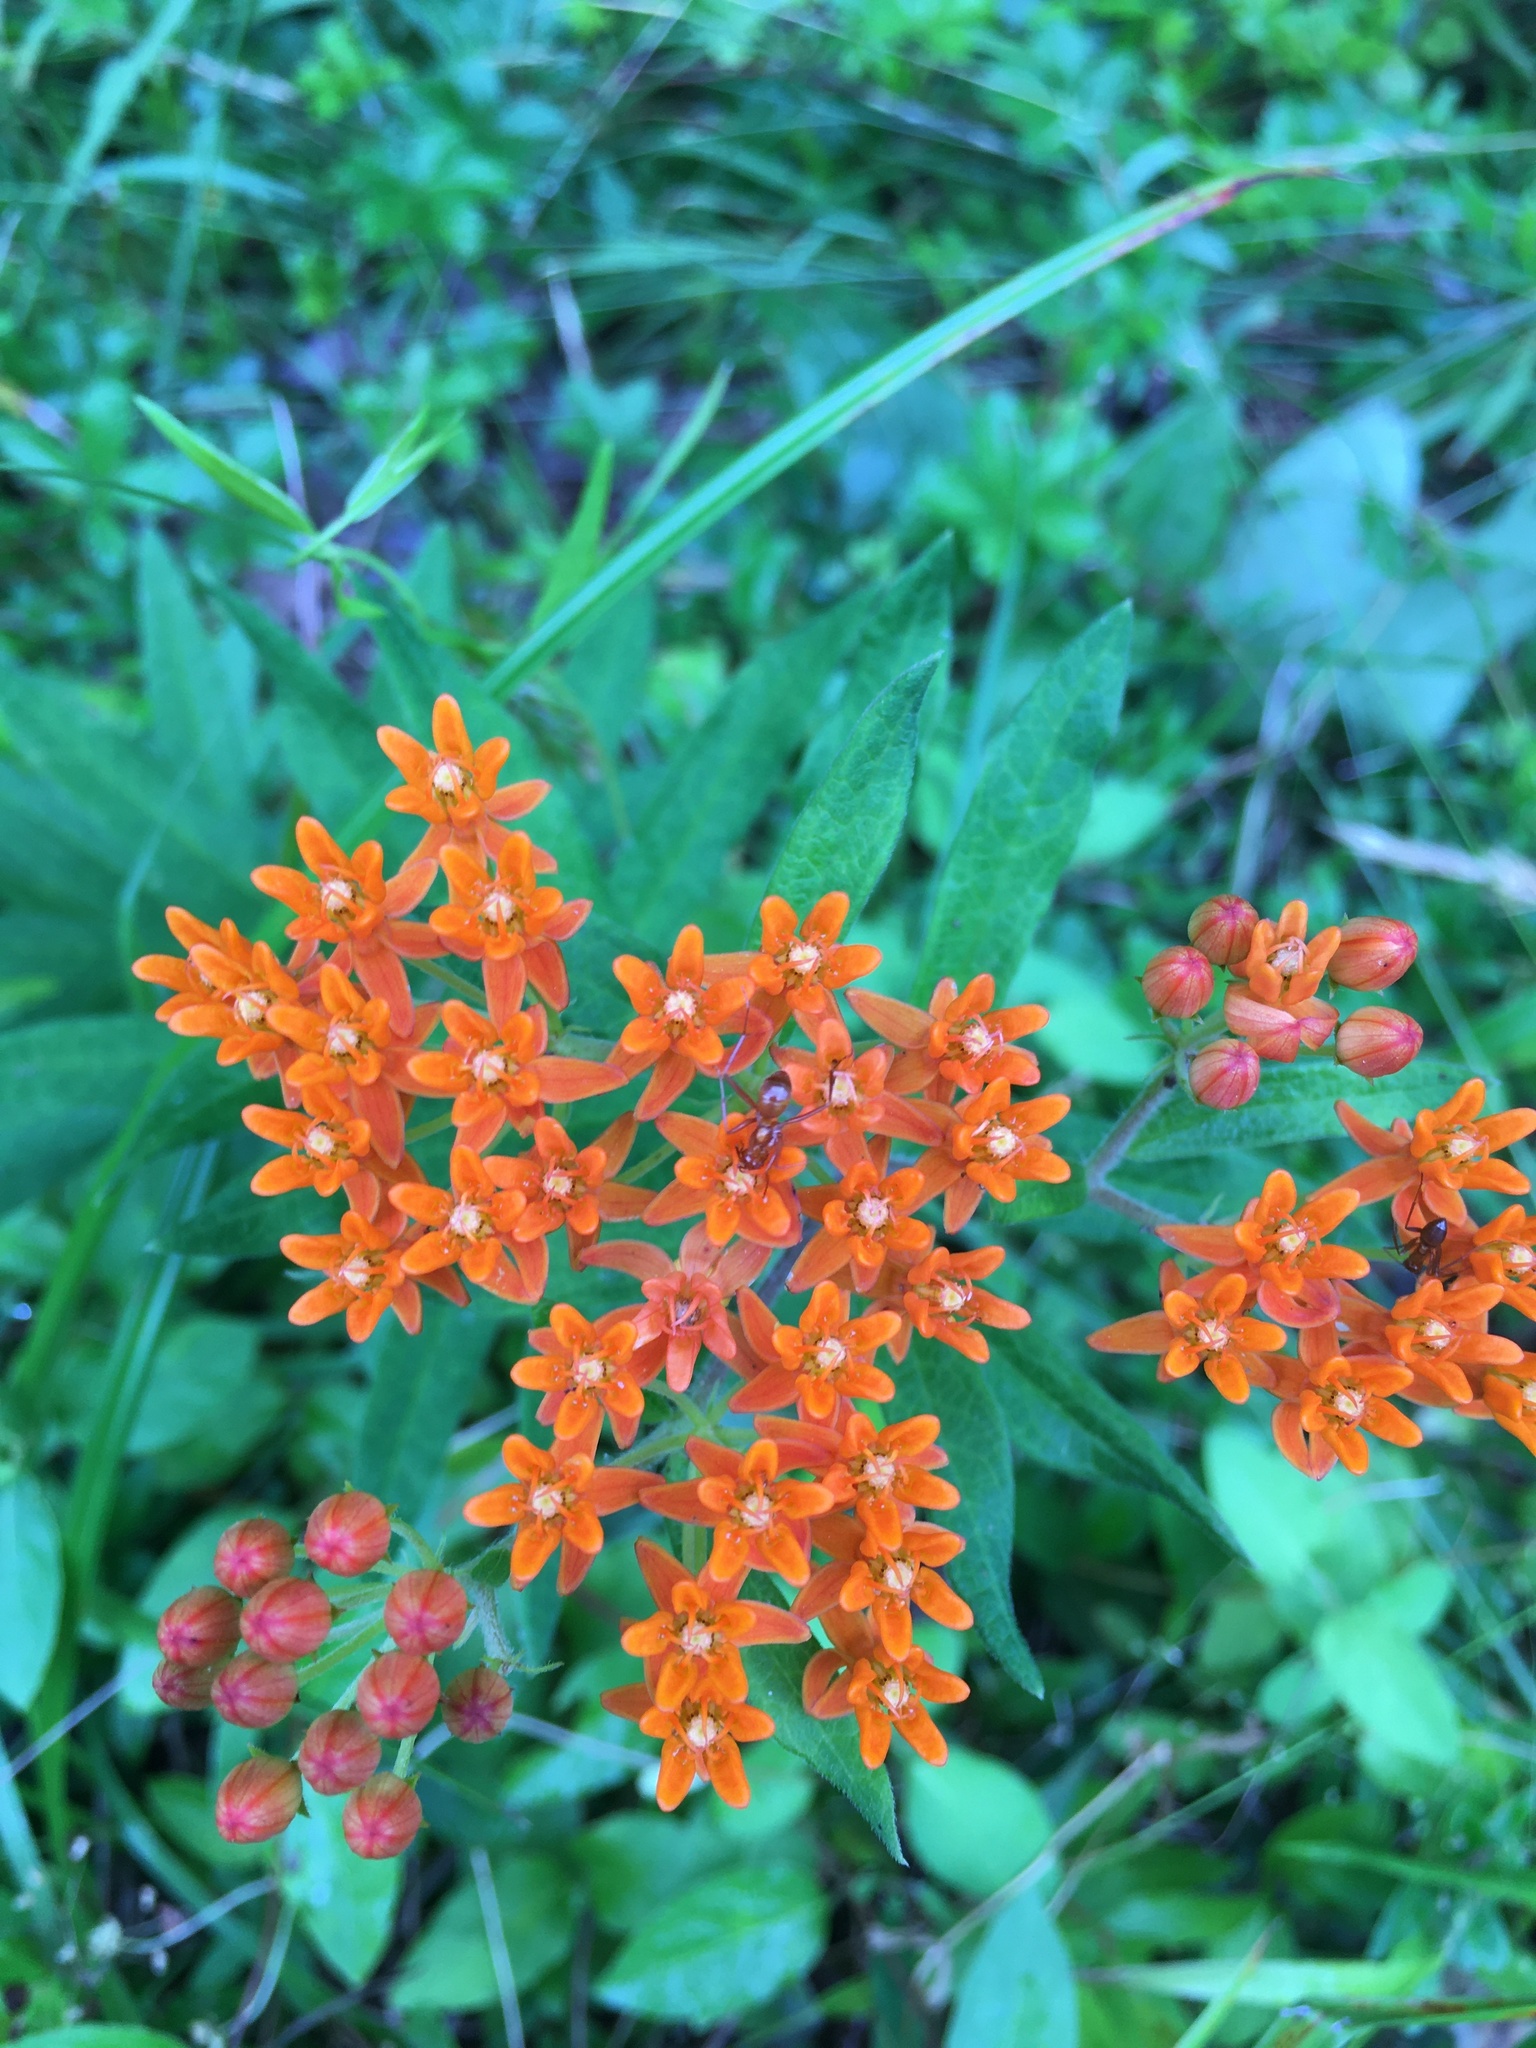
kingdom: Plantae
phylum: Tracheophyta
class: Magnoliopsida
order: Gentianales
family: Apocynaceae
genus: Asclepias
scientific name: Asclepias tuberosa
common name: Butterfly milkweed
